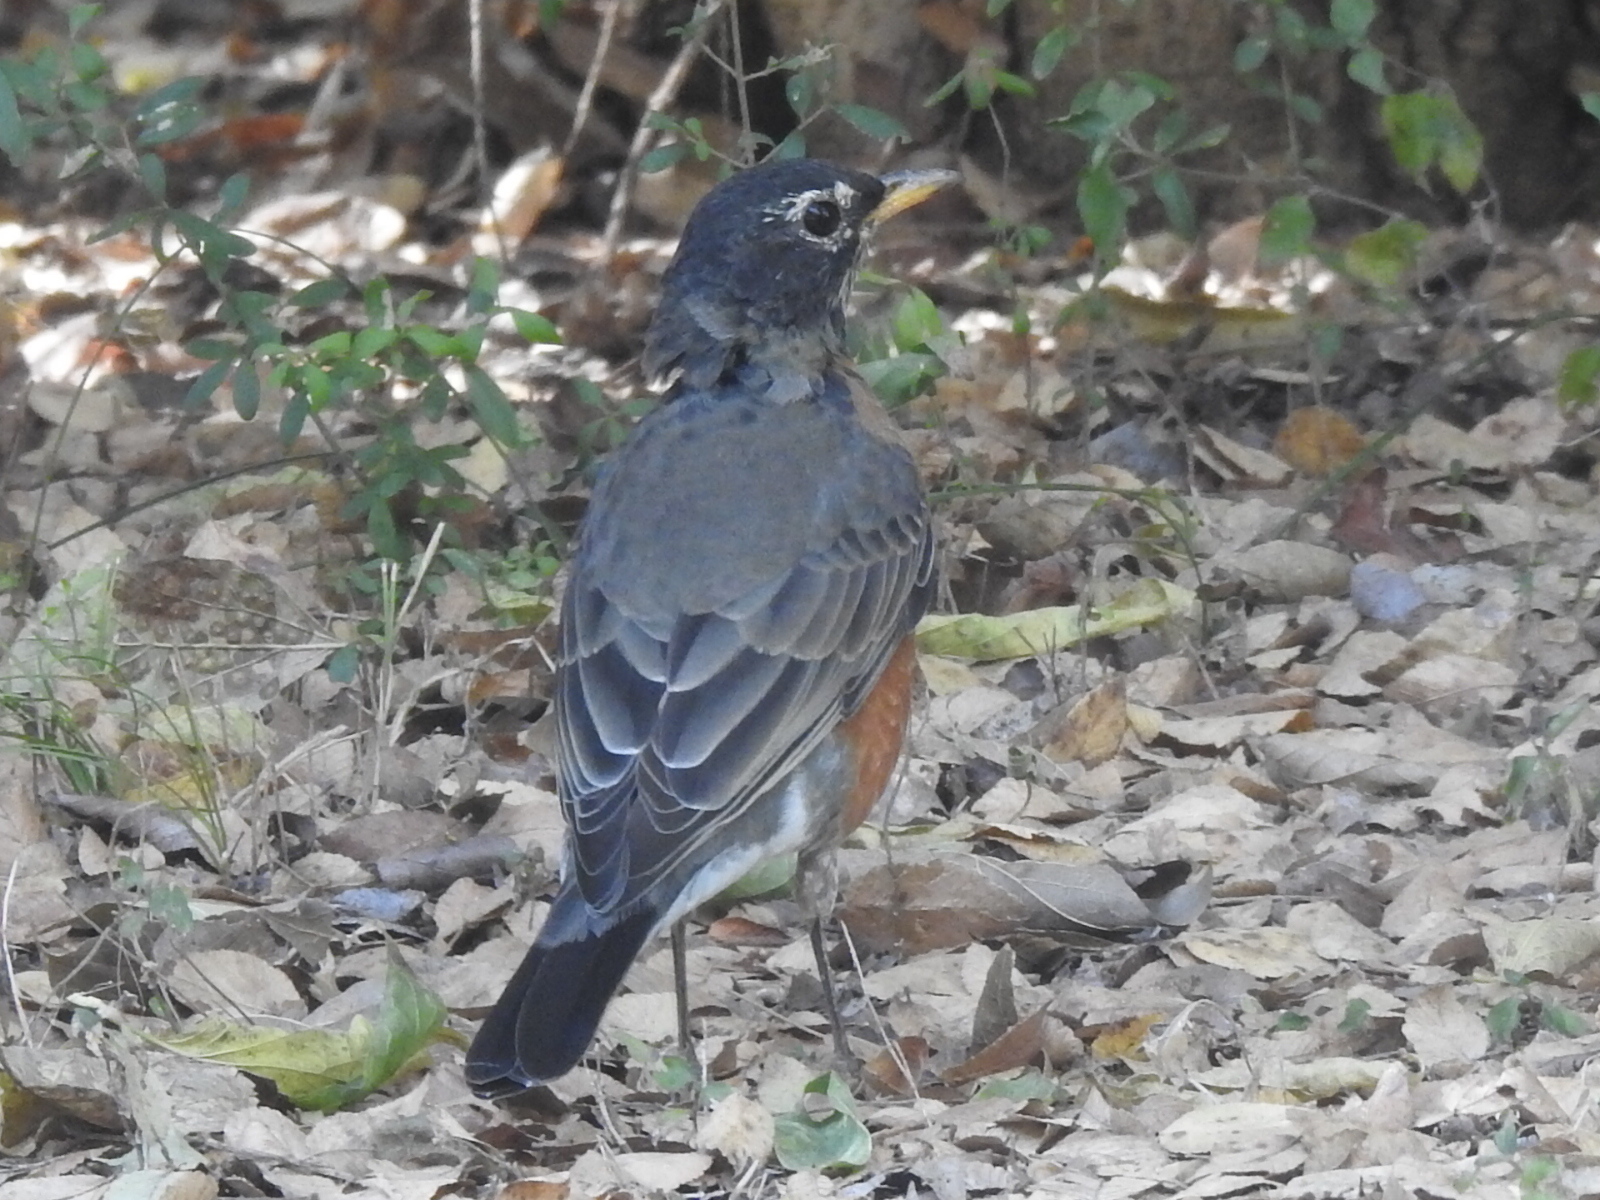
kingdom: Animalia
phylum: Chordata
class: Aves
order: Passeriformes
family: Turdidae
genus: Turdus
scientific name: Turdus migratorius
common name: American robin
